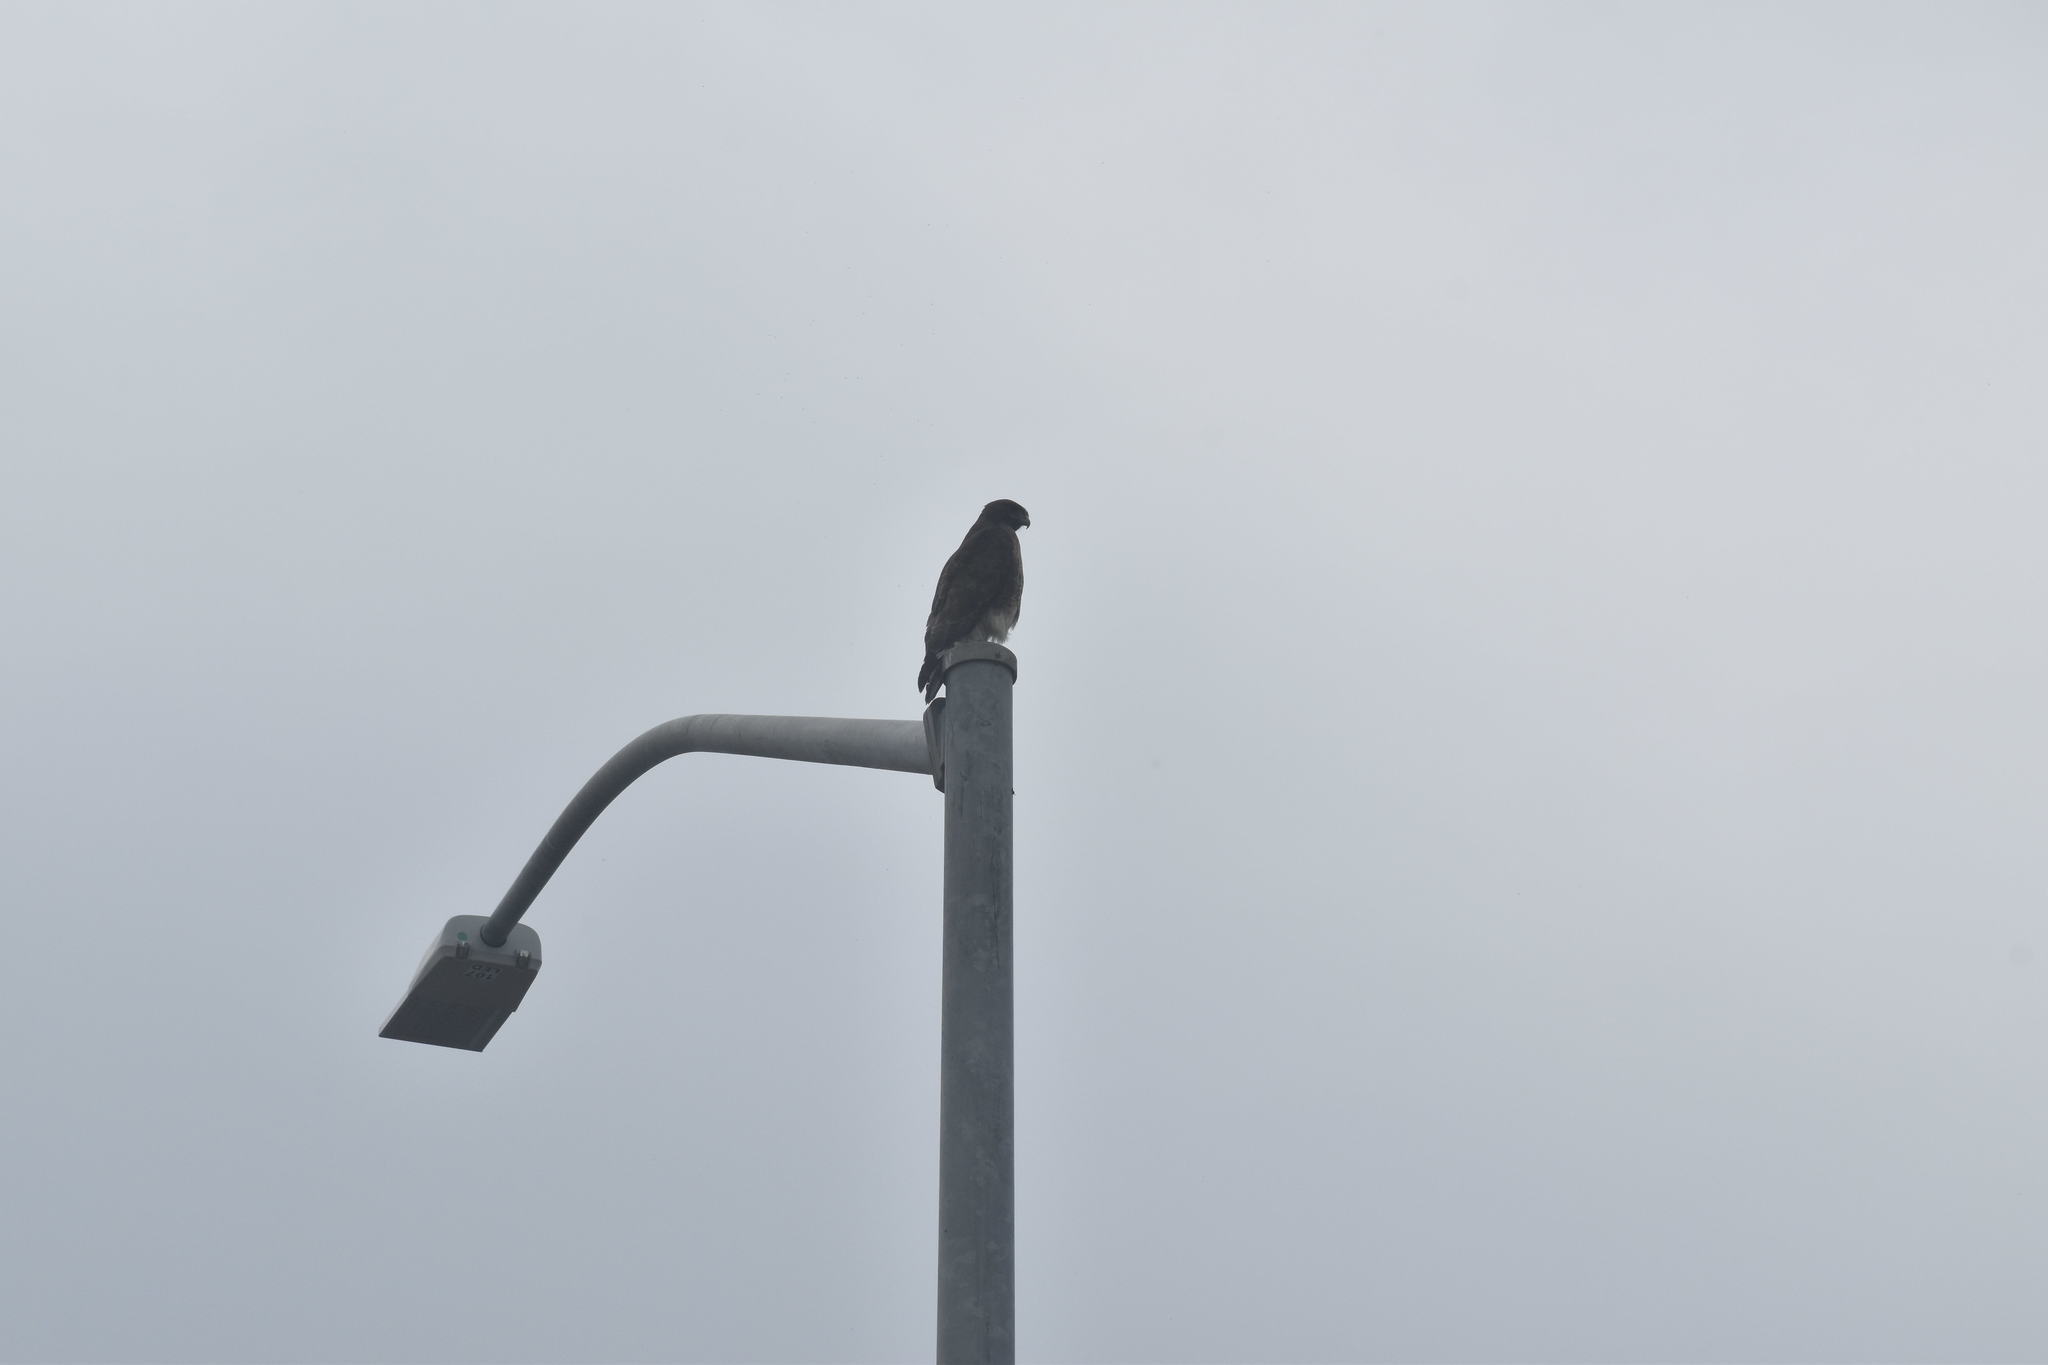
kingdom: Animalia
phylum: Chordata
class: Aves
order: Accipitriformes
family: Accipitridae
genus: Buteo
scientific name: Buteo jamaicensis
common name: Red-tailed hawk
